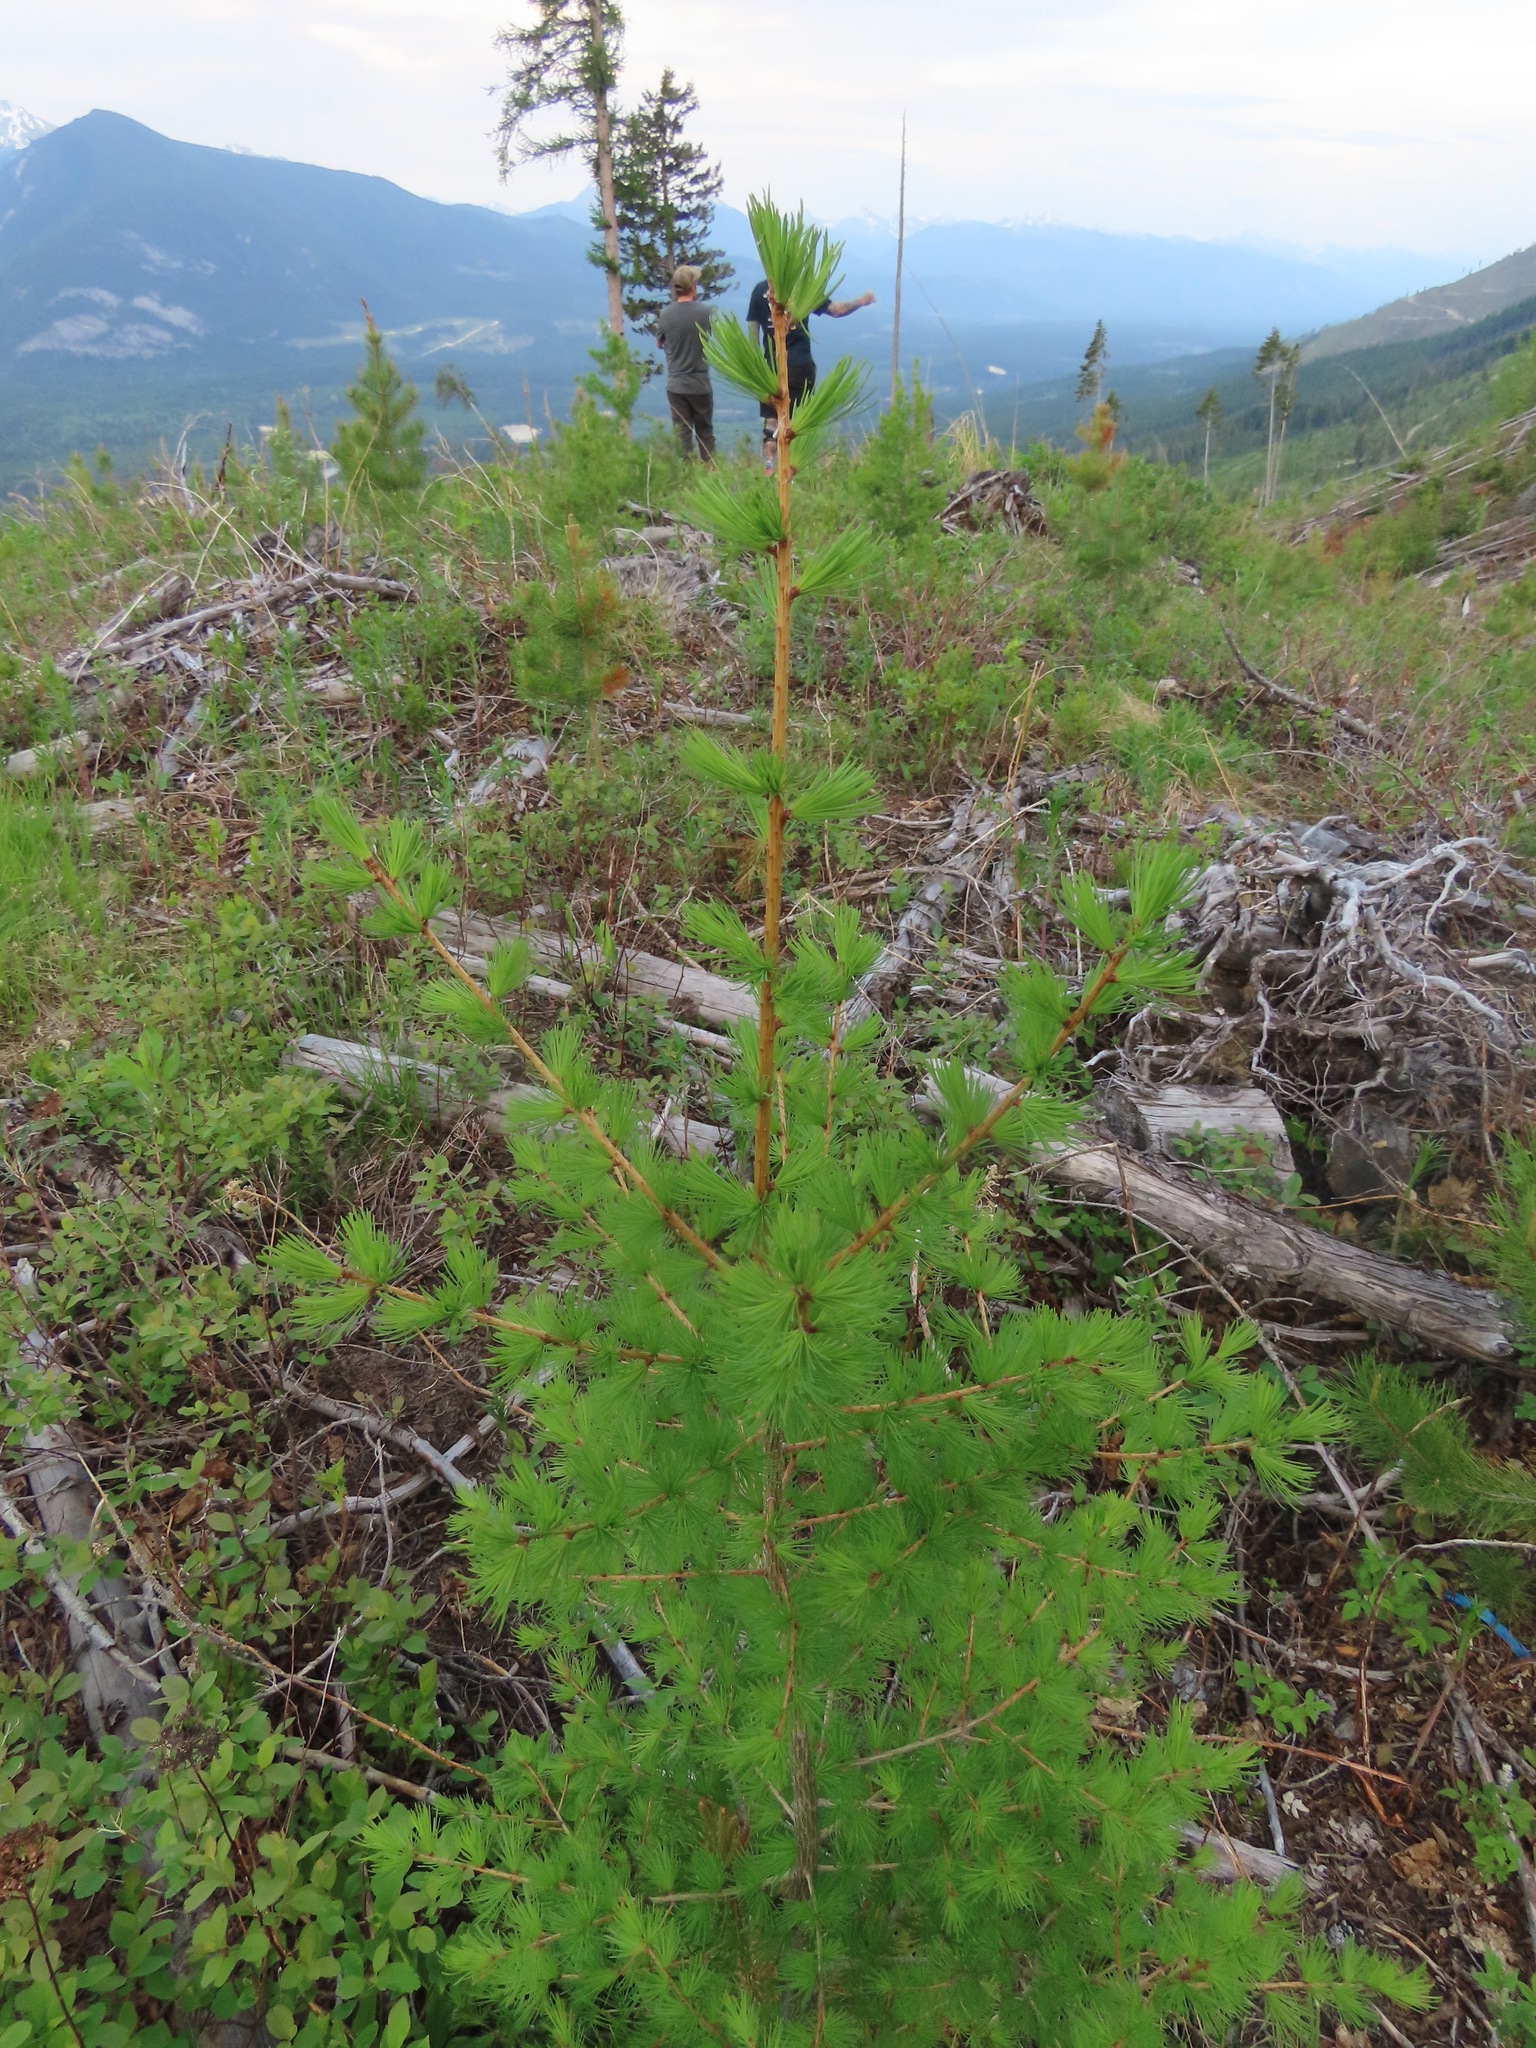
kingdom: Plantae
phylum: Tracheophyta
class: Pinopsida
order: Pinales
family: Pinaceae
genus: Larix
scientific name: Larix occidentalis
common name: Western larch
